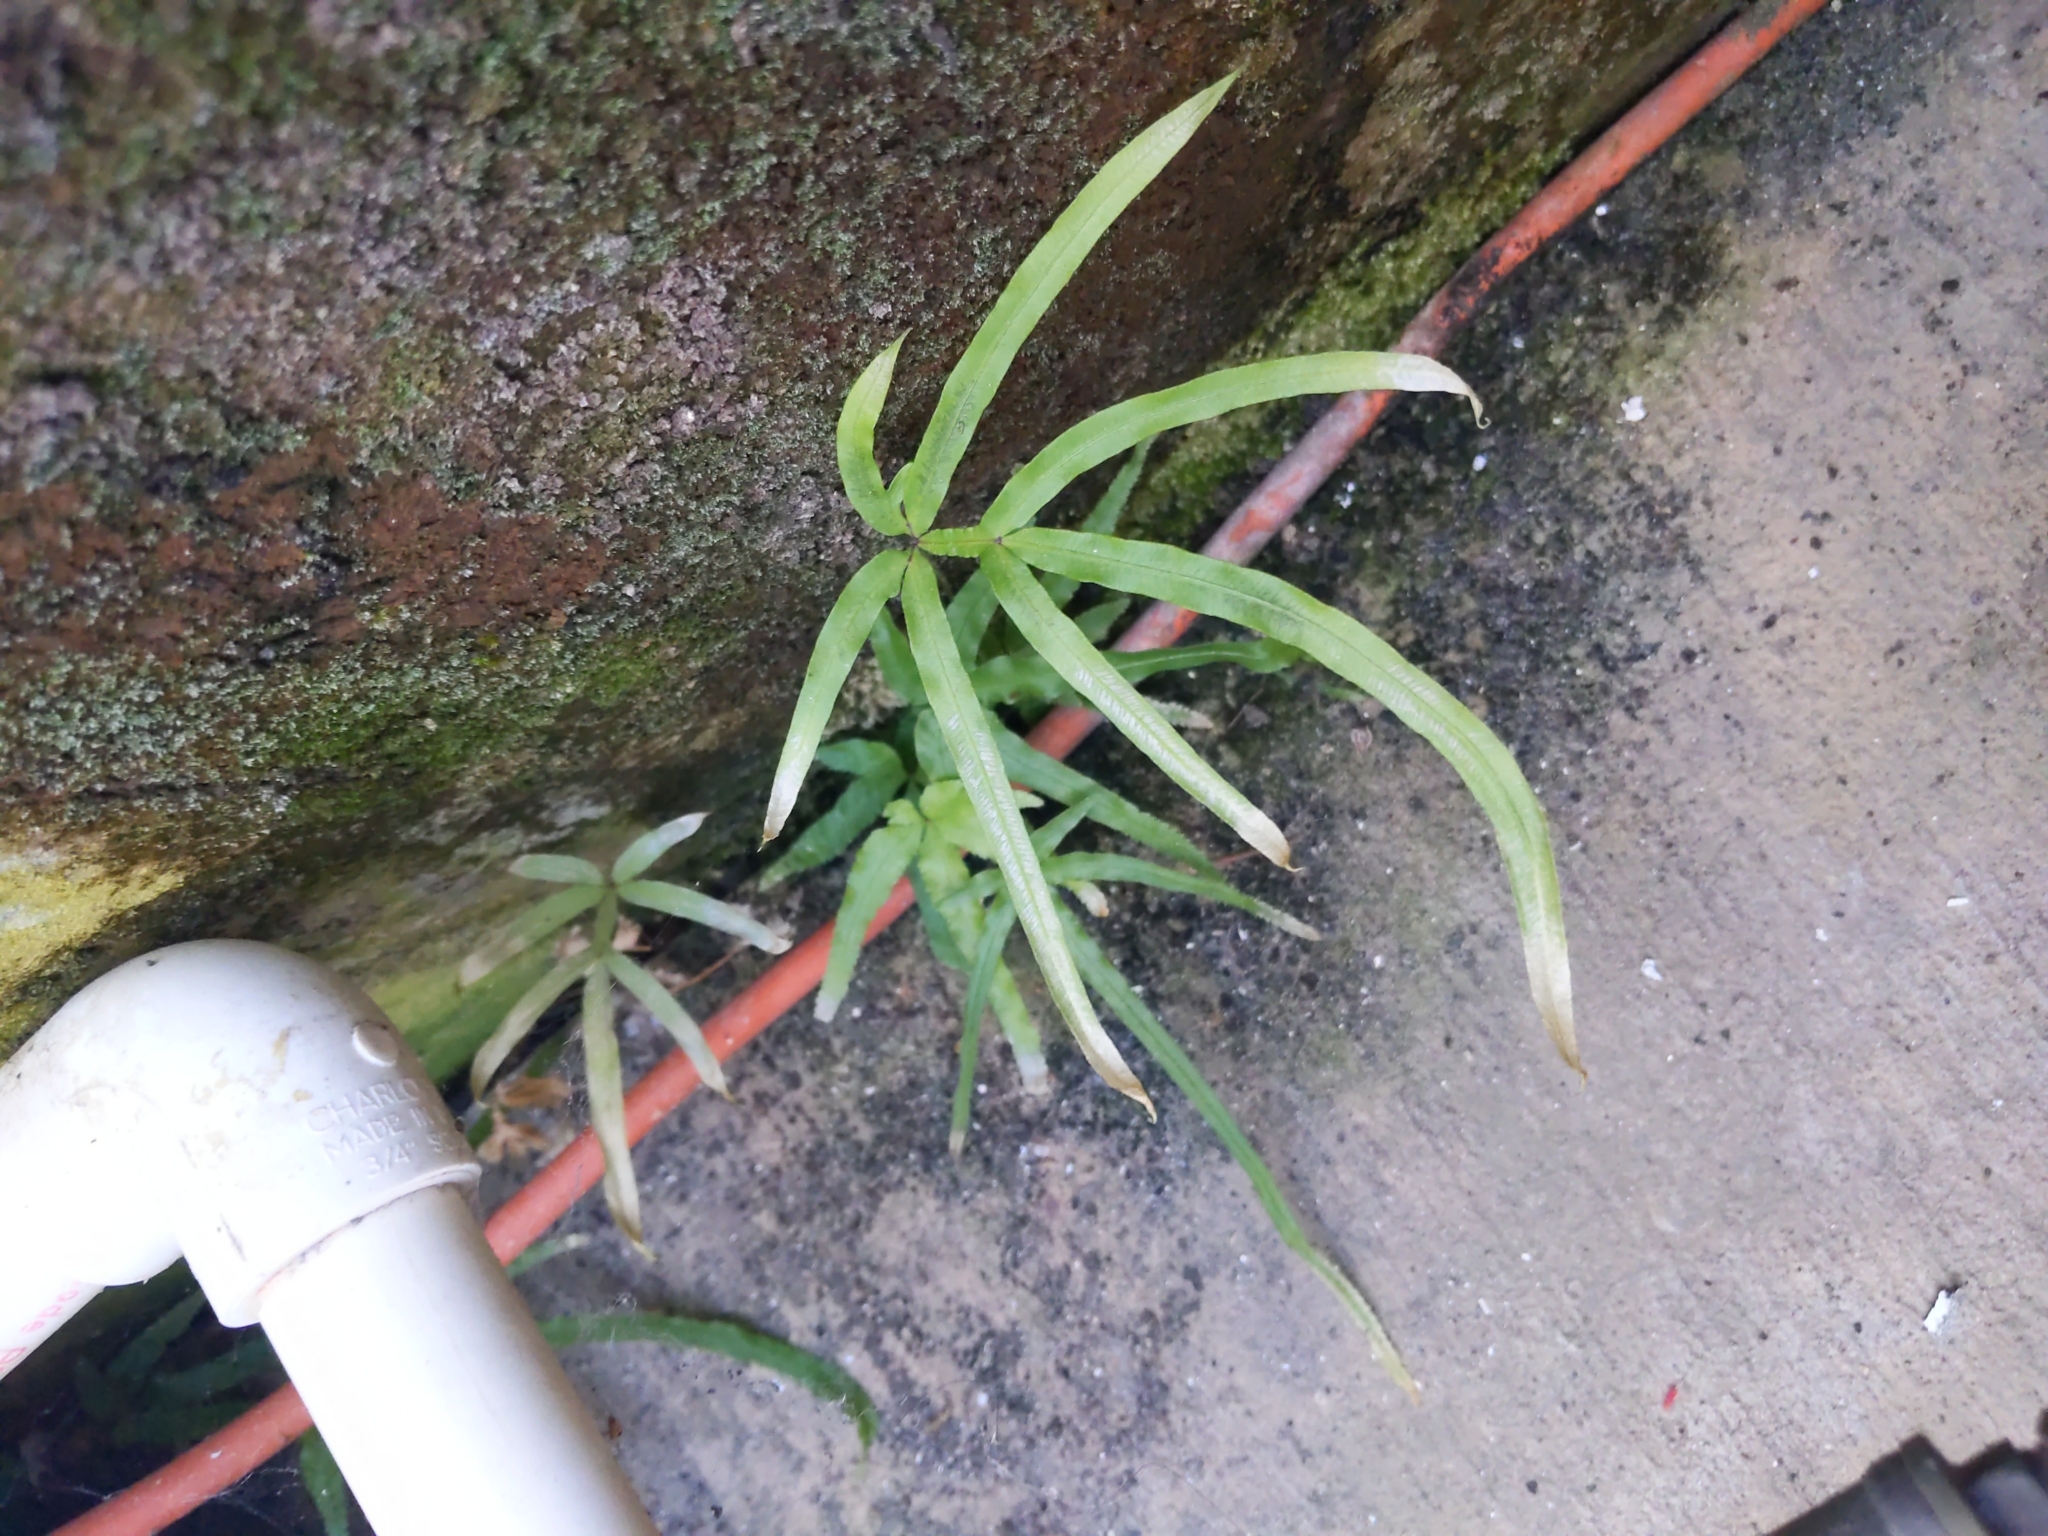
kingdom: Plantae
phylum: Tracheophyta
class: Polypodiopsida
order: Polypodiales
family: Pteridaceae
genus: Pteris
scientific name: Pteris multifida
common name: Spider brake
